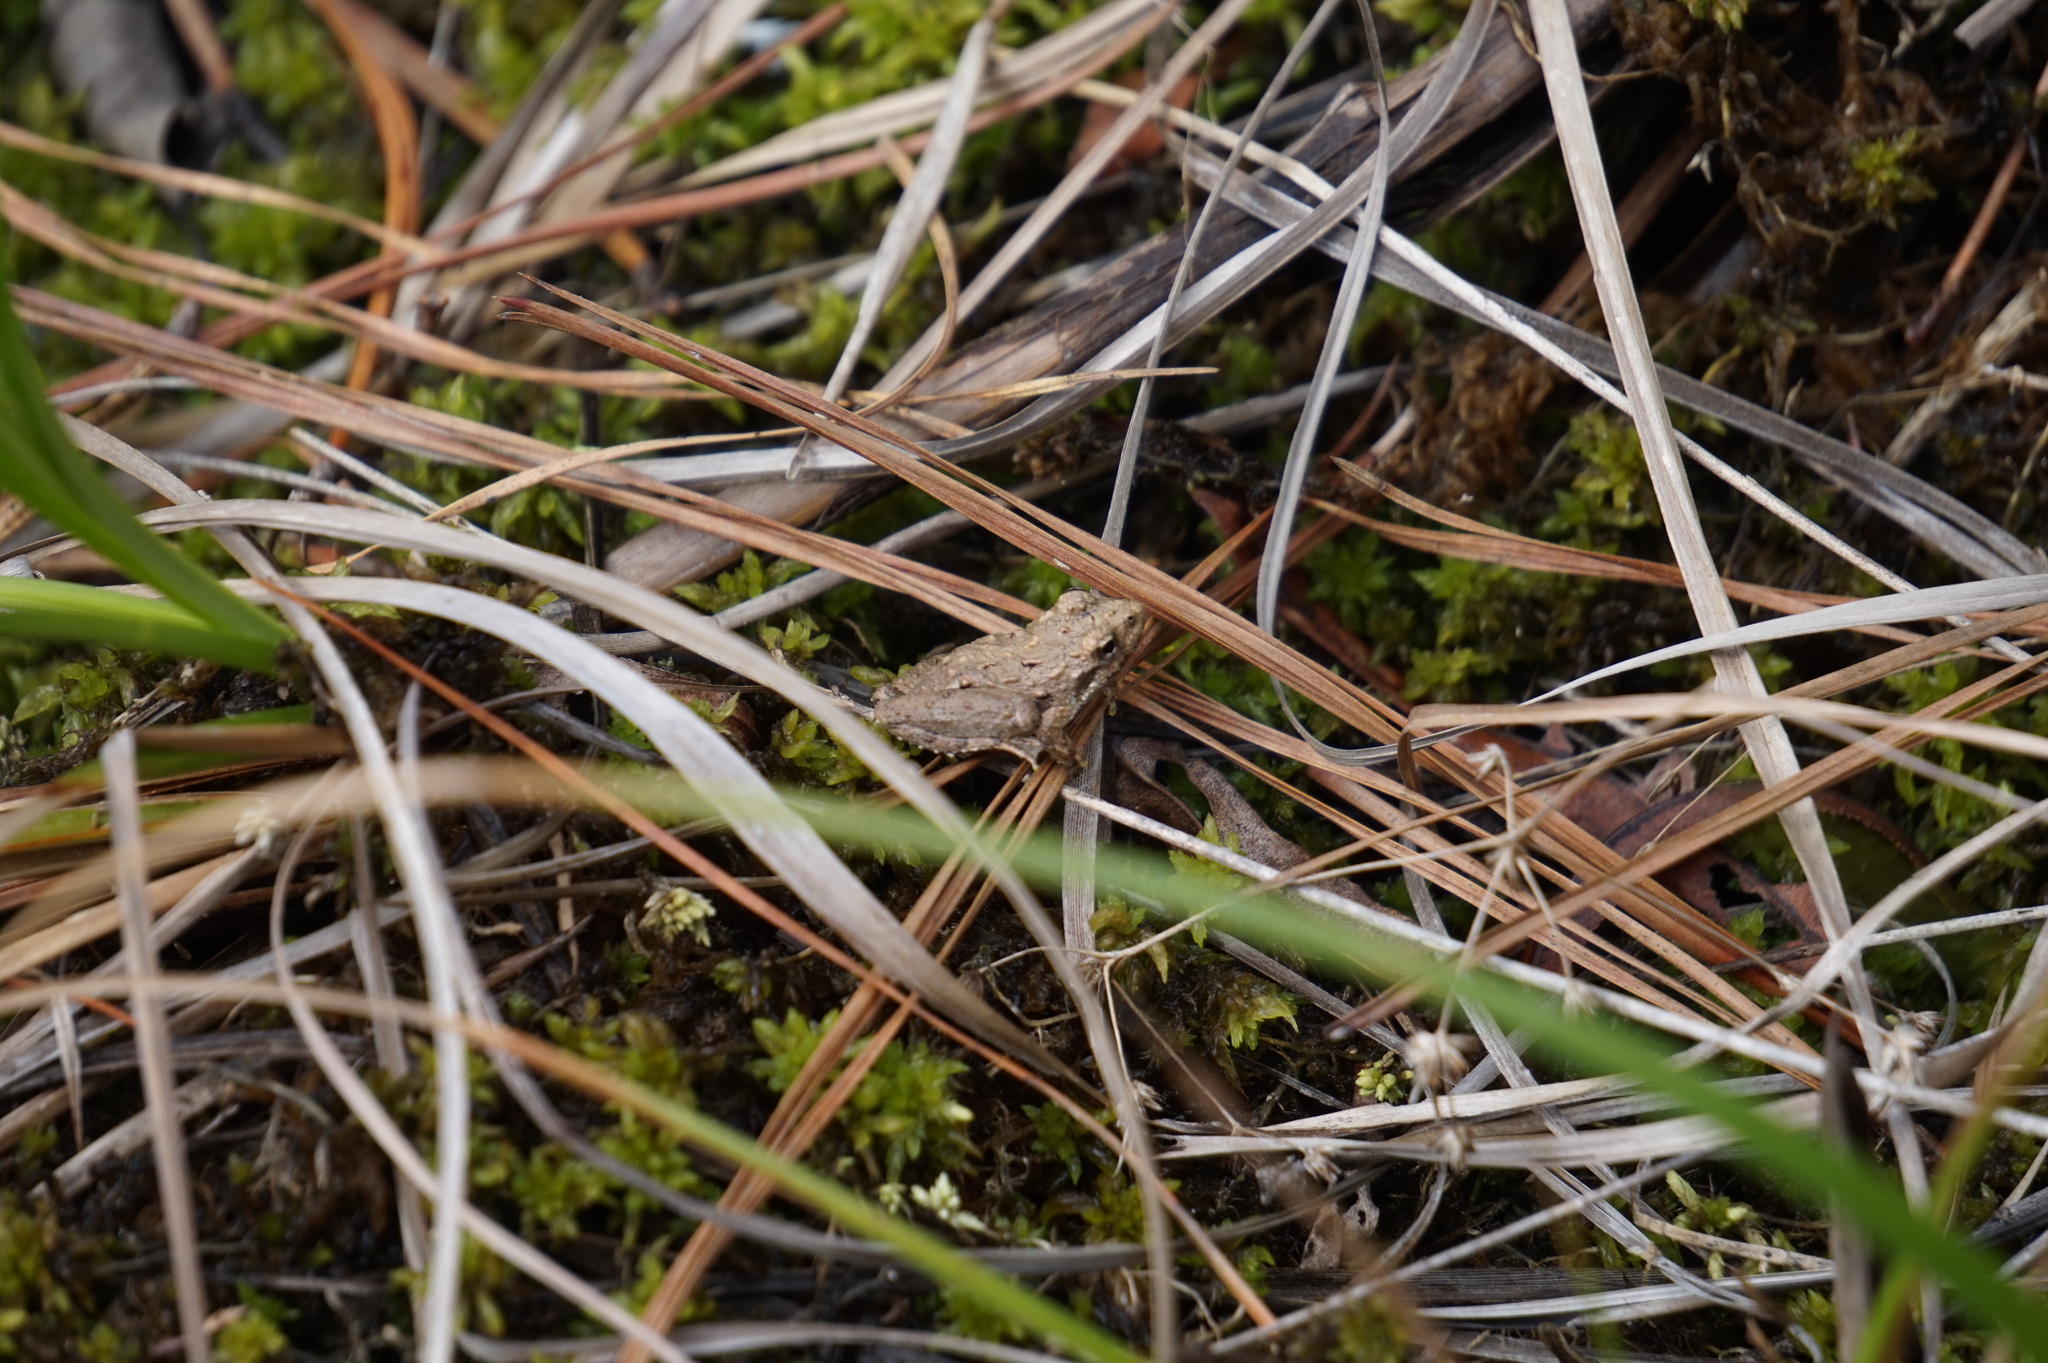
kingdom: Animalia
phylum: Chordata
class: Amphibia
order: Anura
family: Hylidae
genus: Acris
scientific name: Acris crepitans
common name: Northern cricket frog
